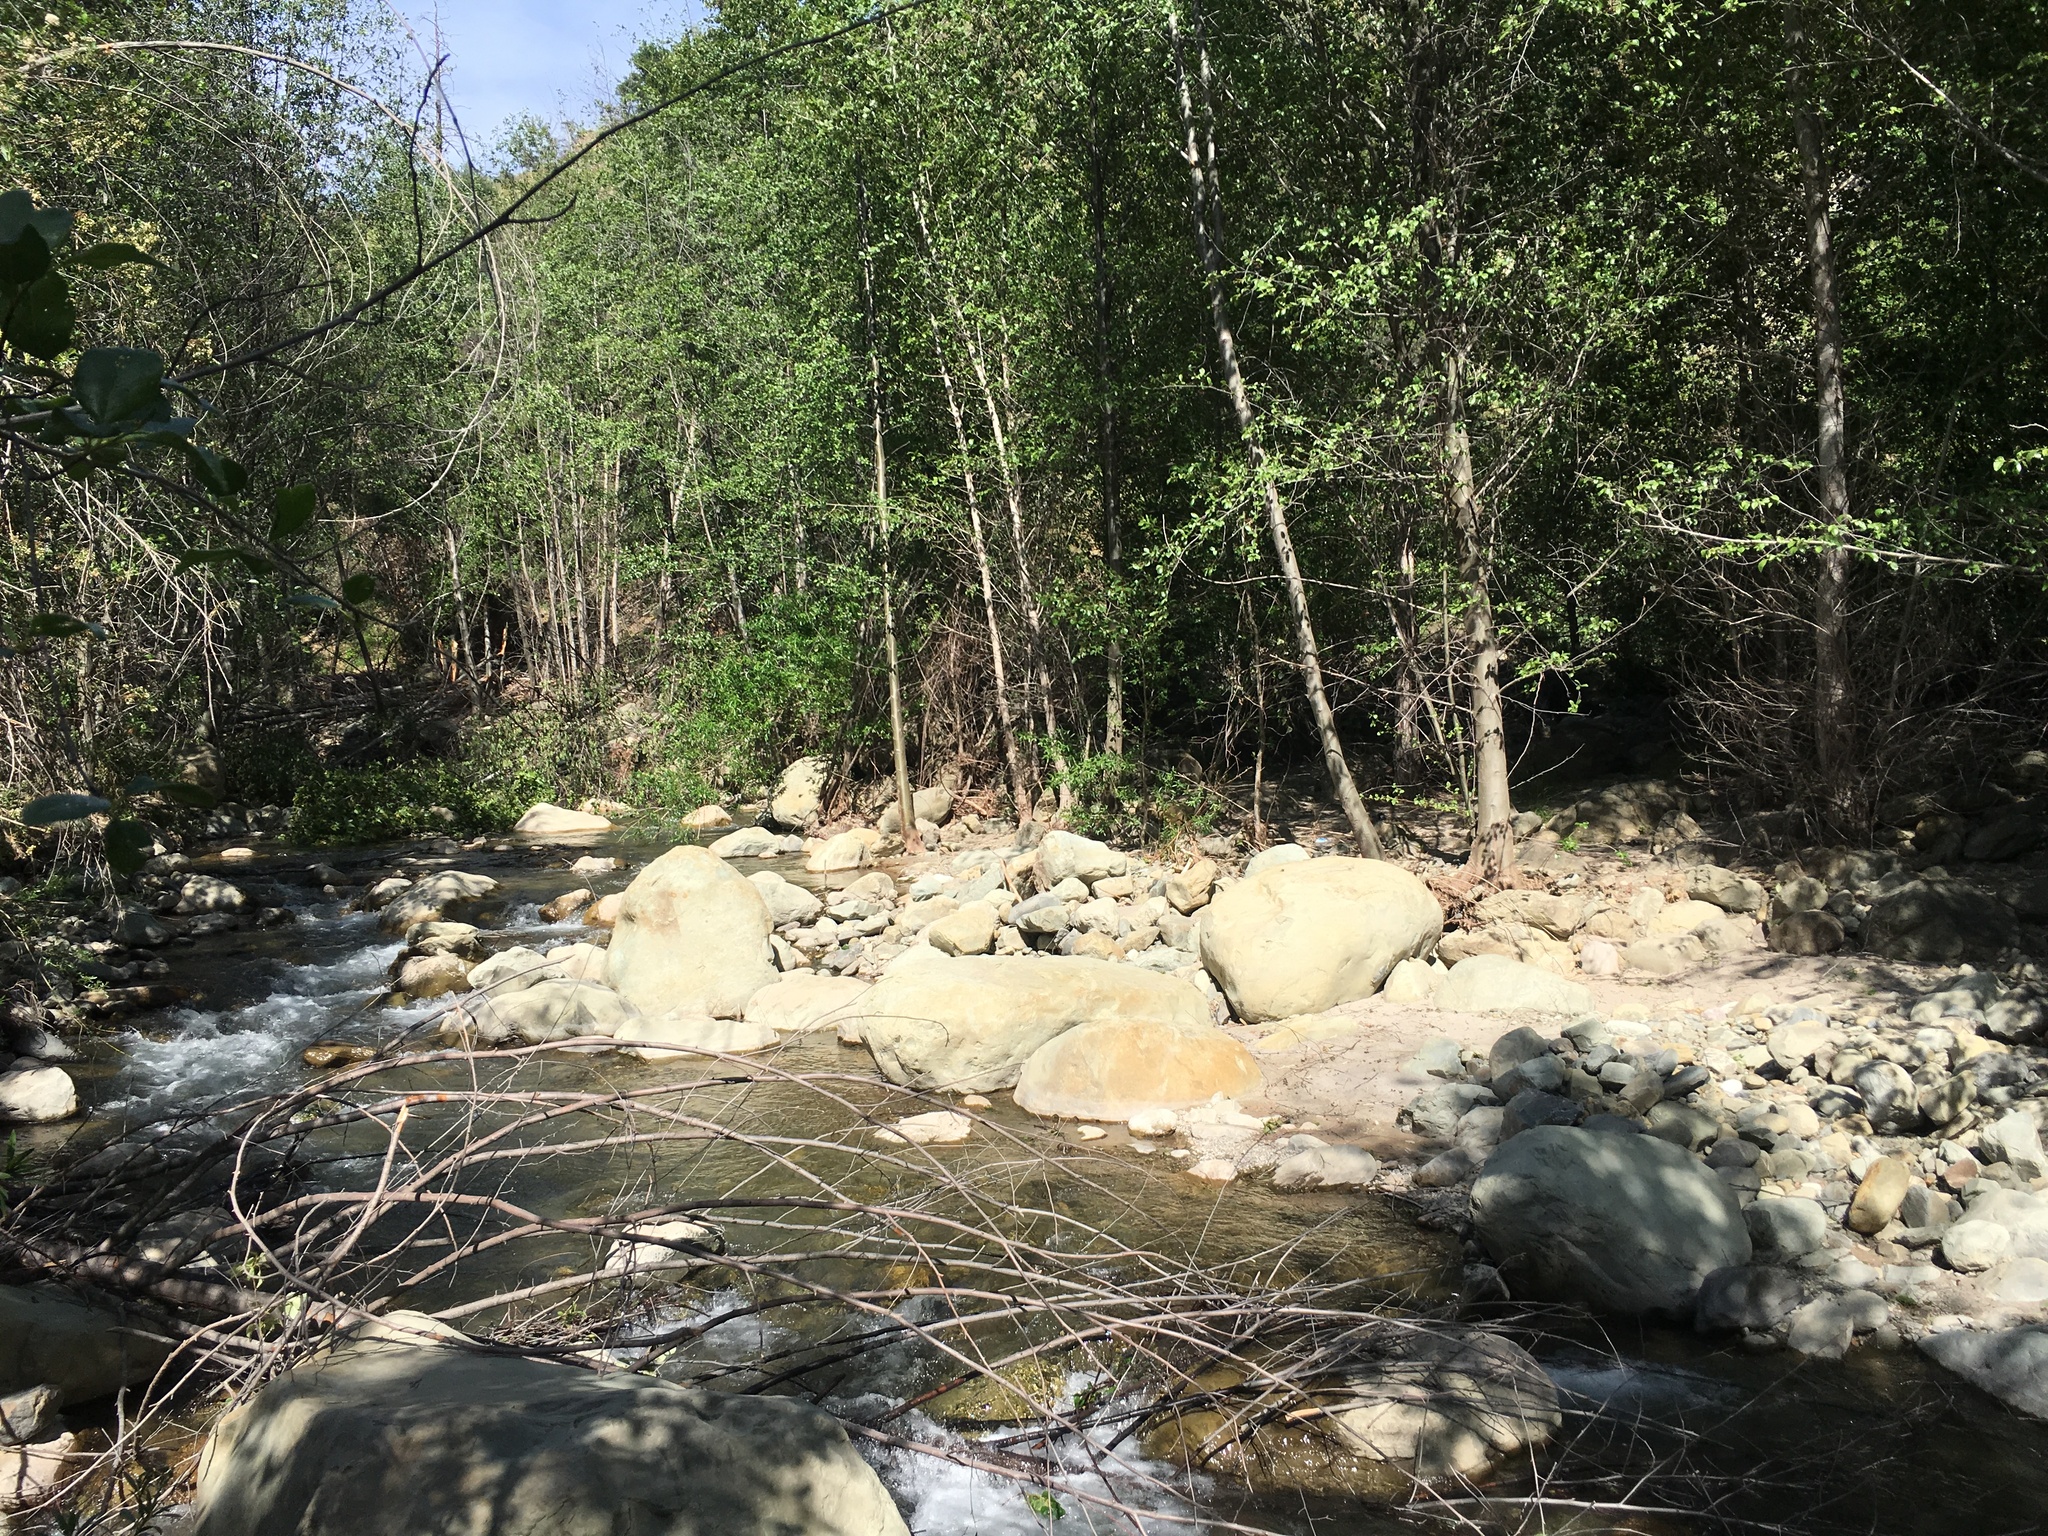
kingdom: Plantae
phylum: Tracheophyta
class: Magnoliopsida
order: Fagales
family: Betulaceae
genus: Alnus
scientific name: Alnus rhombifolia
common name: California alder
